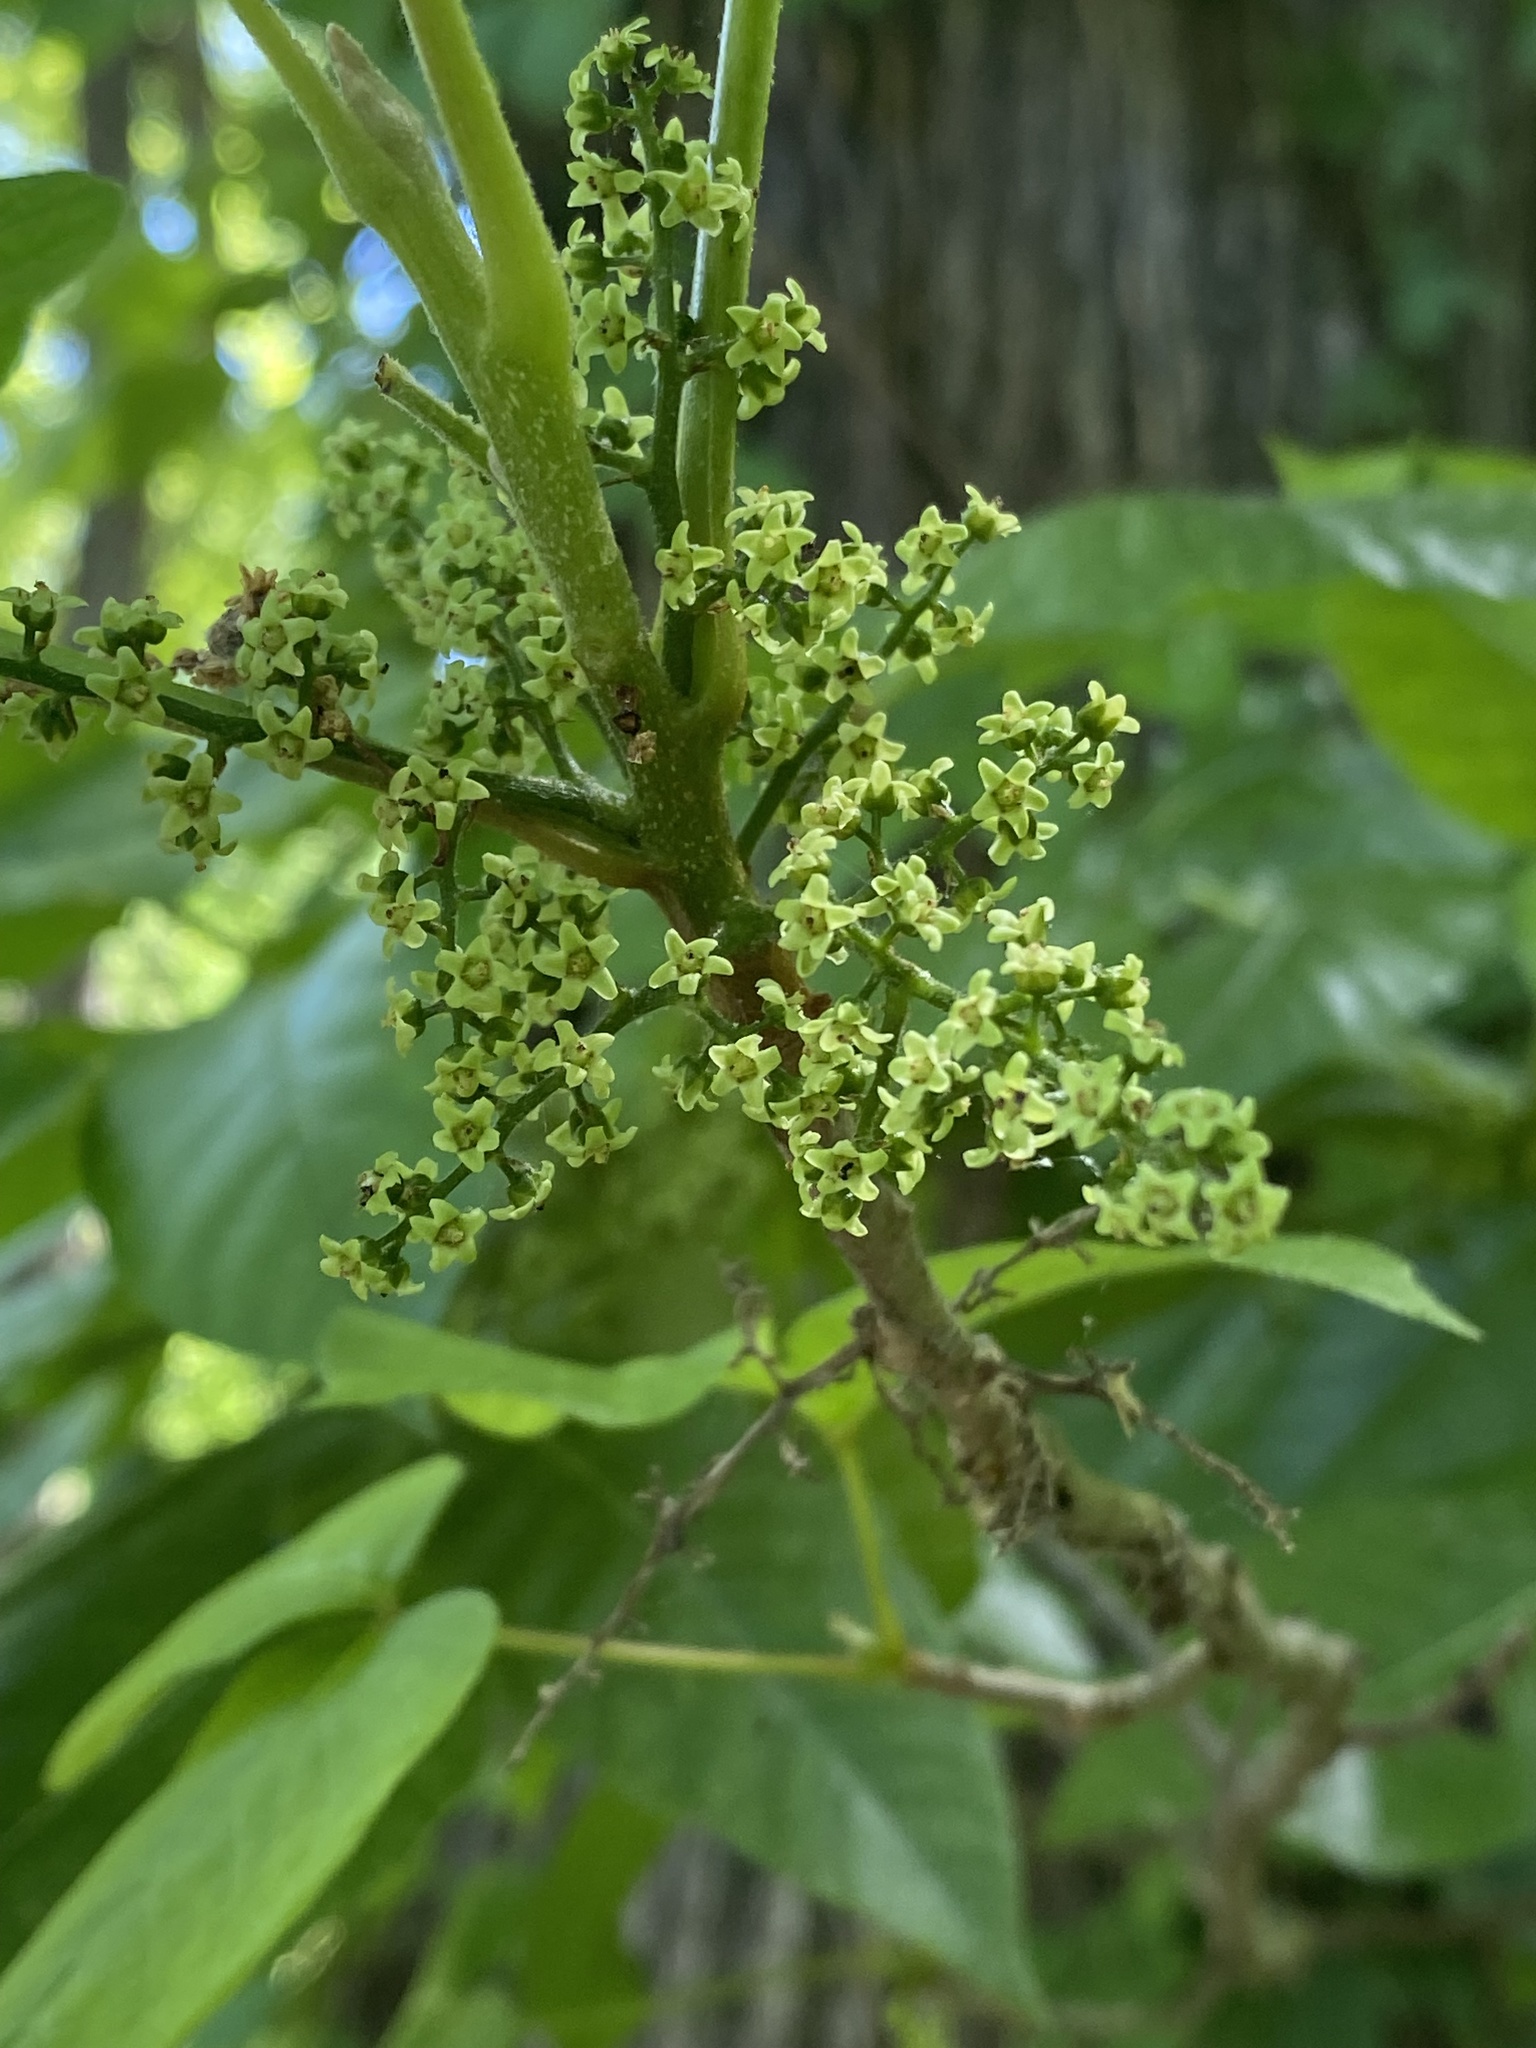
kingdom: Plantae
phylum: Tracheophyta
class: Magnoliopsida
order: Sapindales
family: Anacardiaceae
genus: Toxicodendron
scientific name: Toxicodendron radicans
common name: Poison ivy
